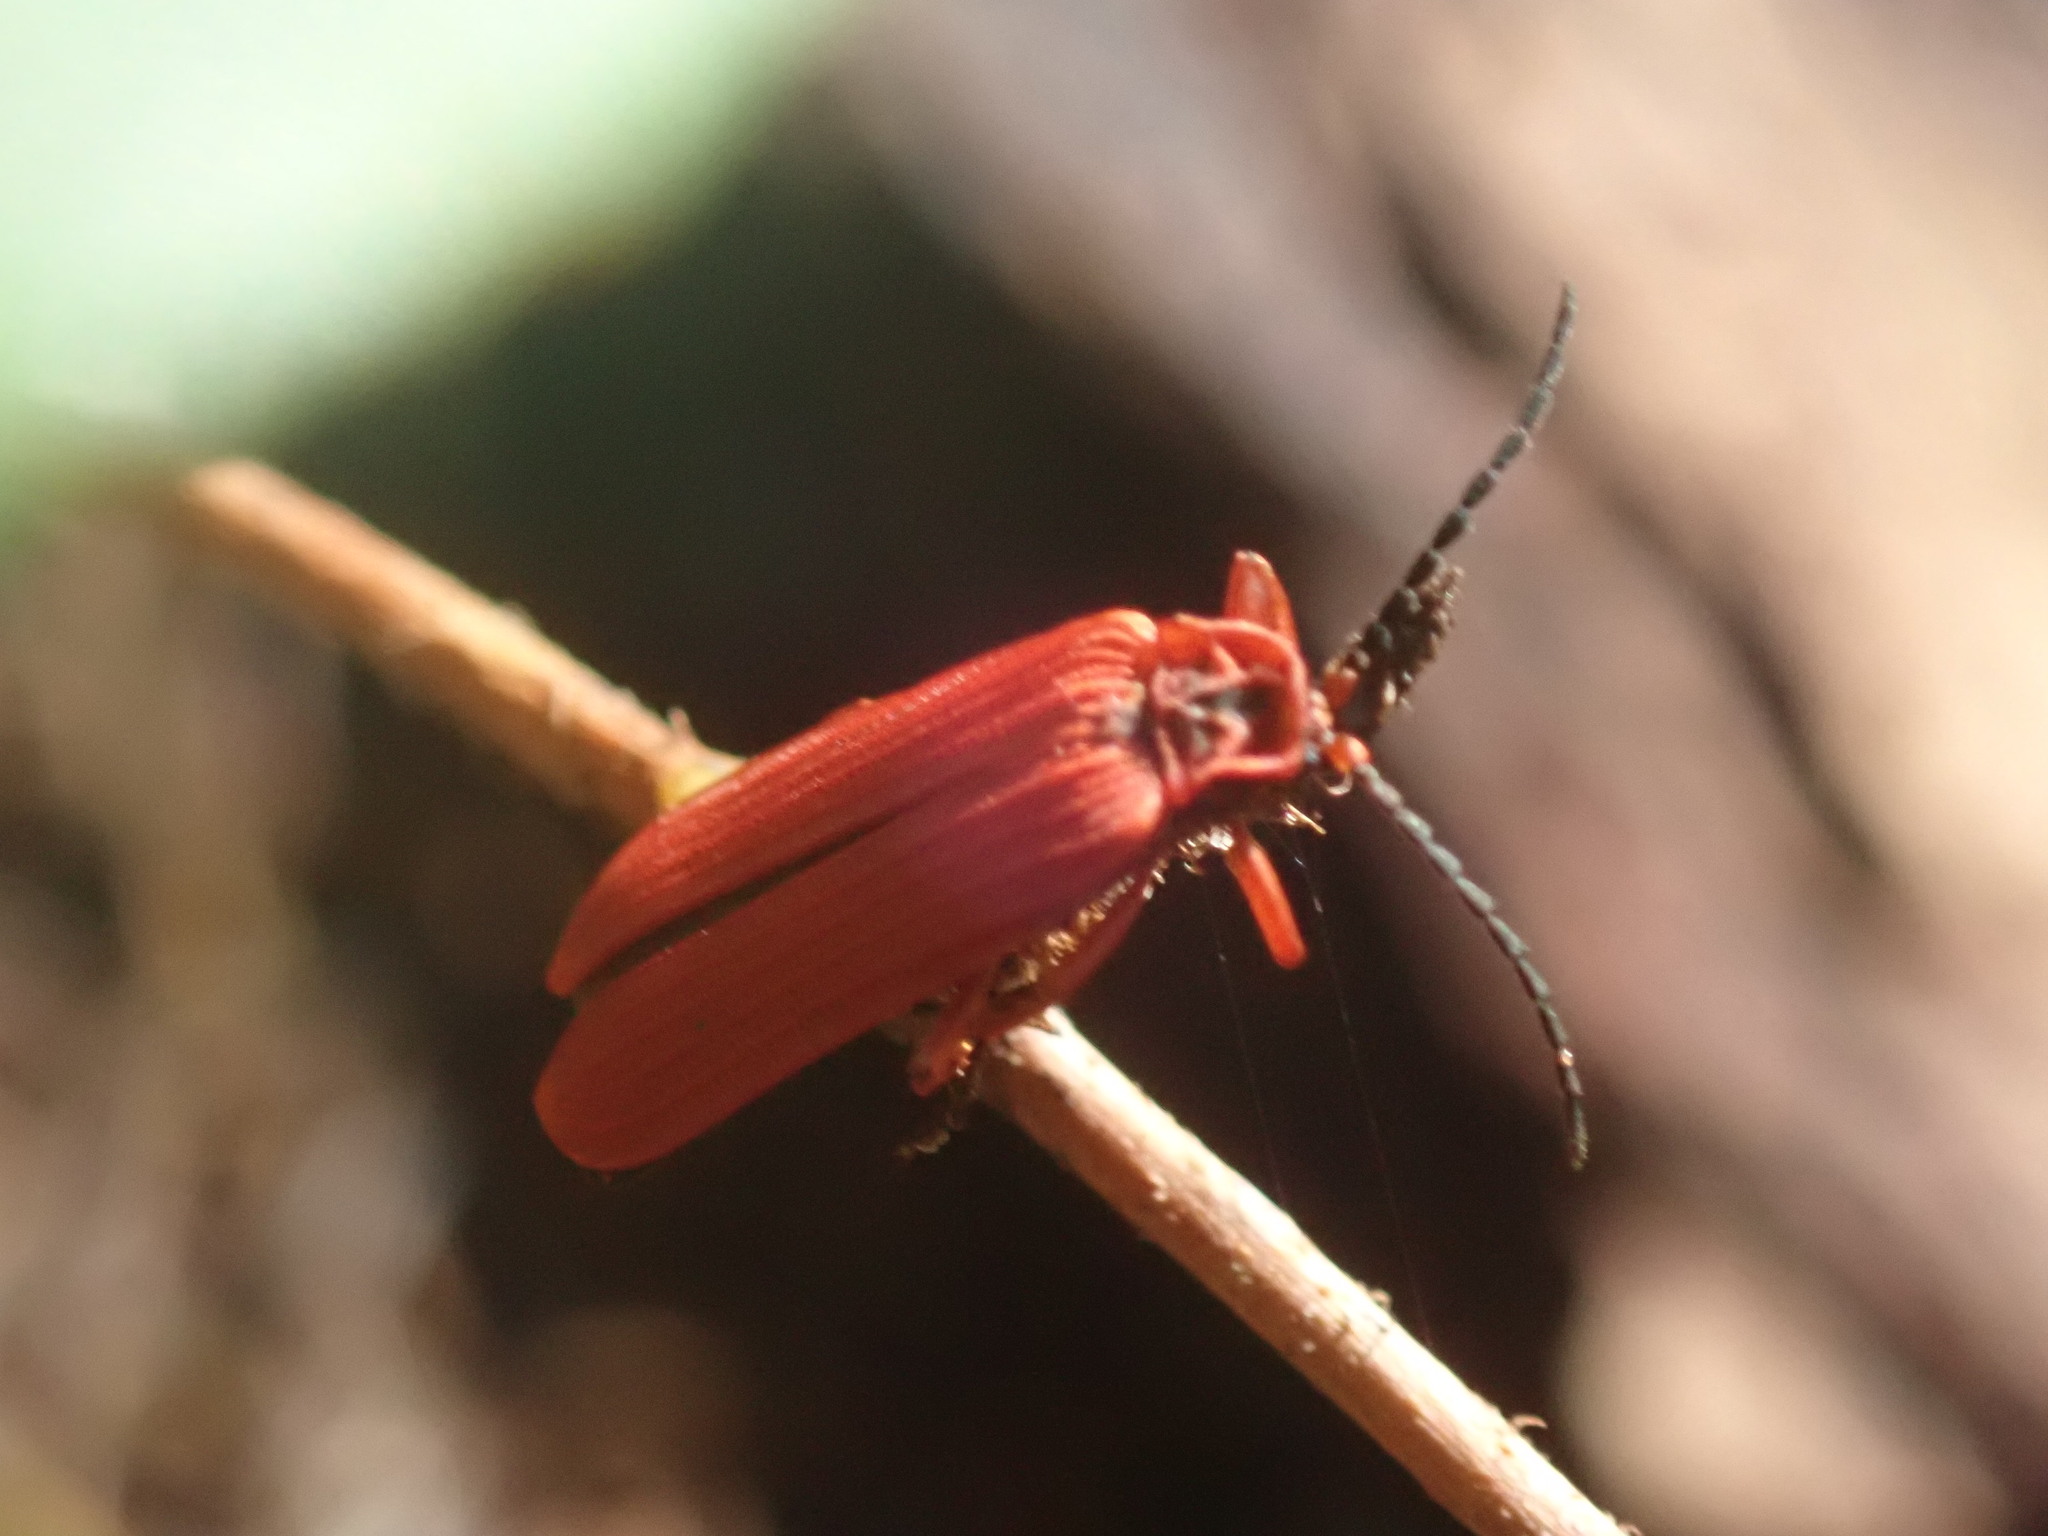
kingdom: Animalia
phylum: Arthropoda
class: Insecta
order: Coleoptera
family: Lycidae
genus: Dictyoptera
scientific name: Dictyoptera simplicipes
